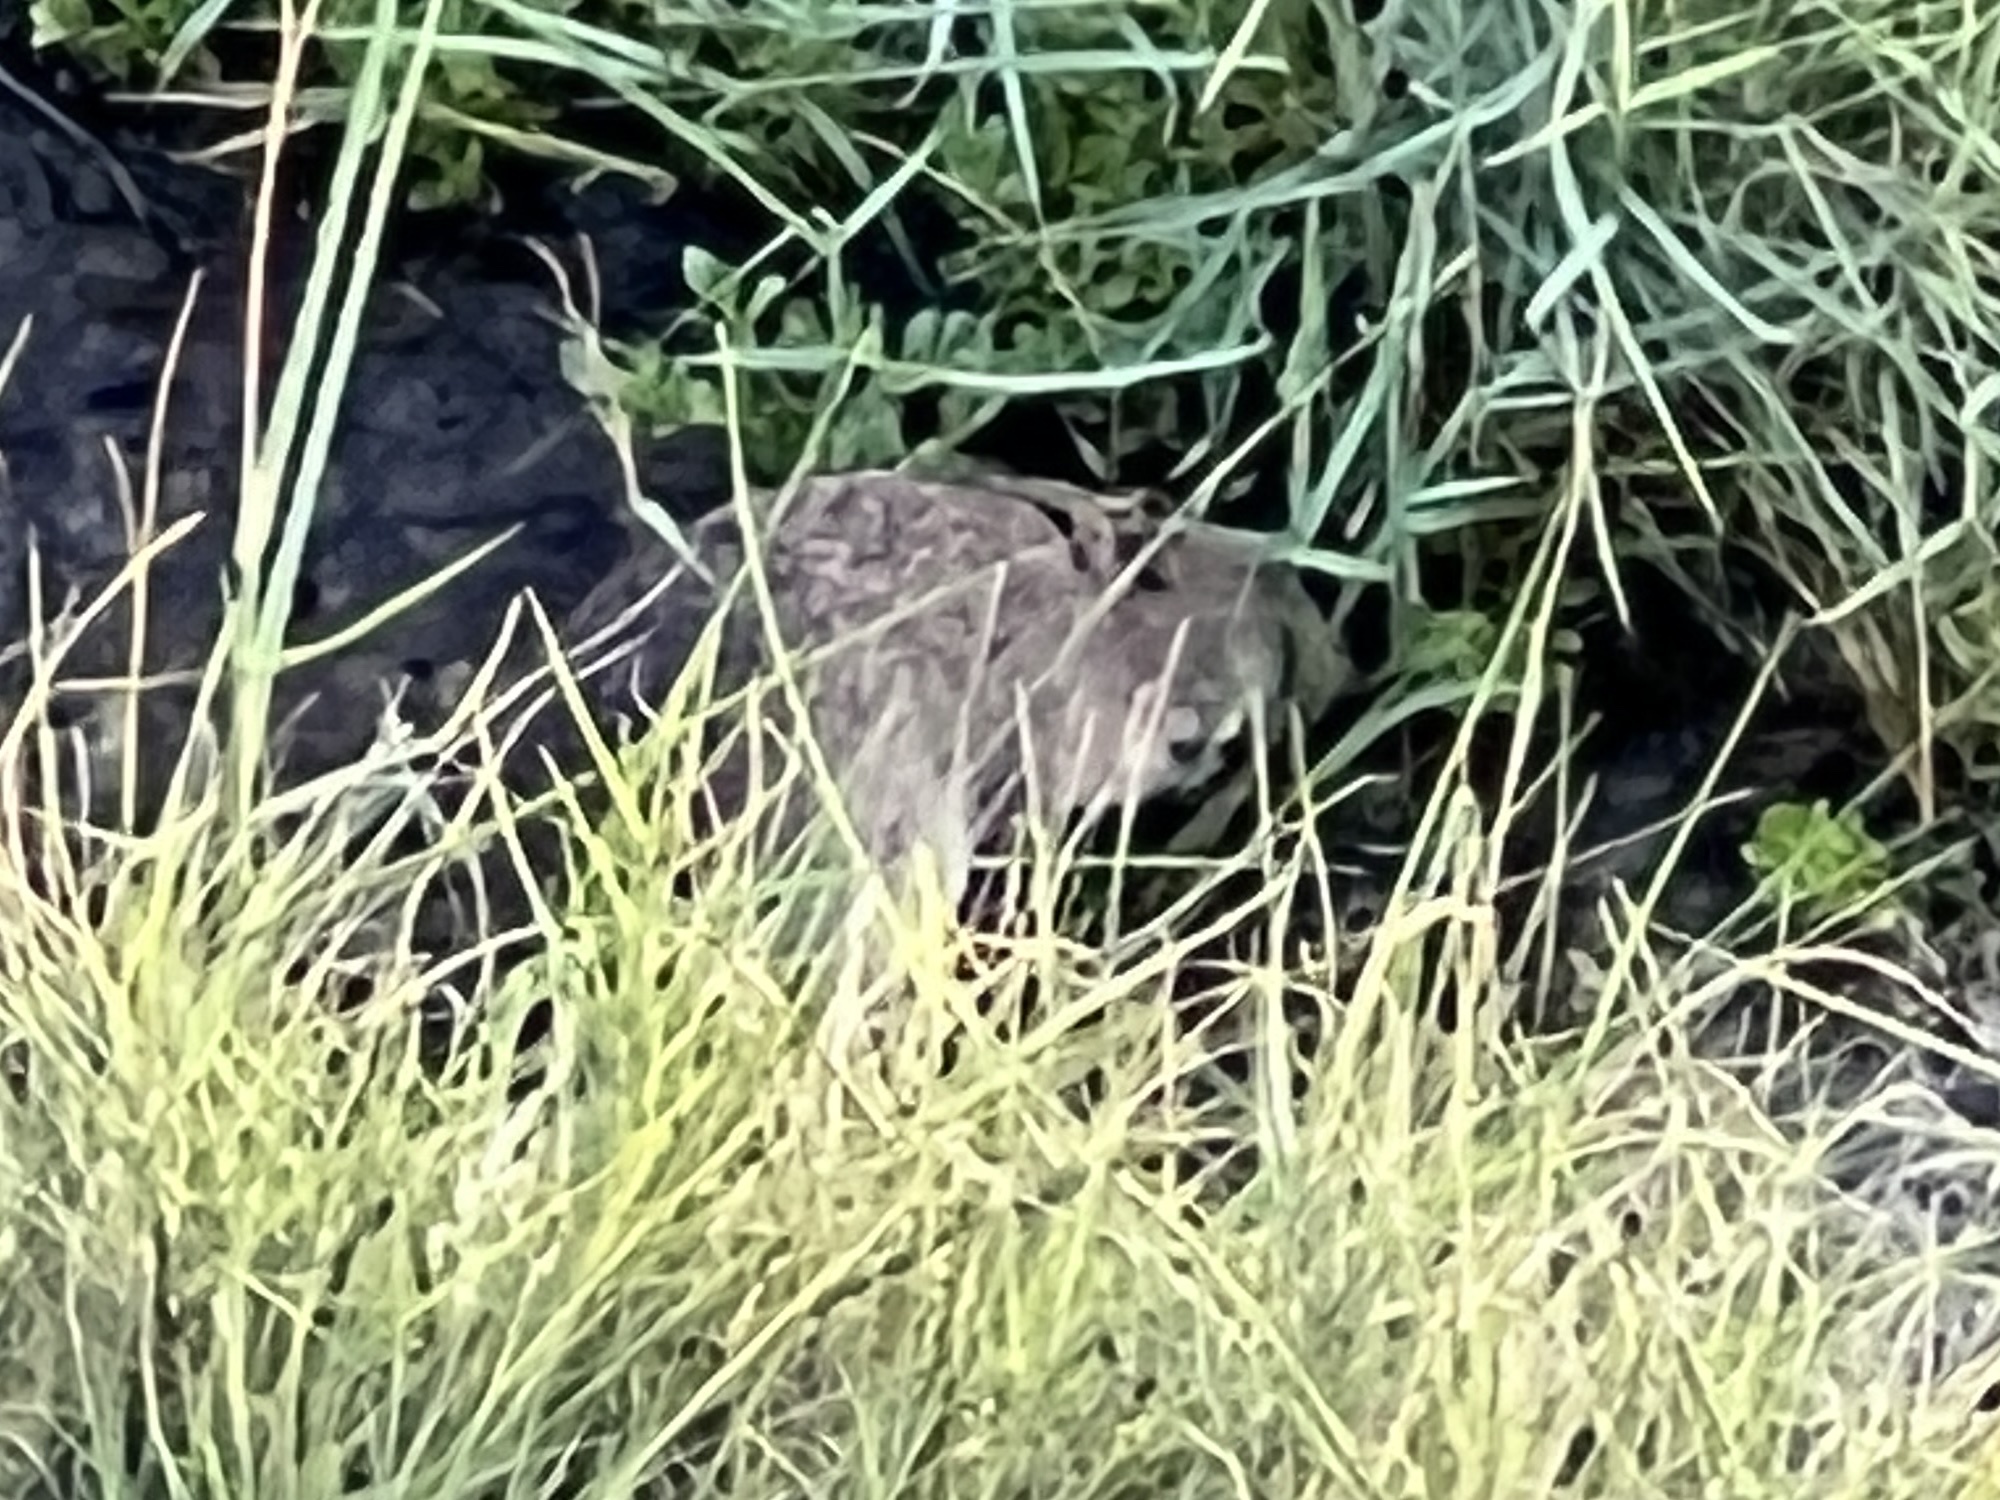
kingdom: Animalia
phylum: Chordata
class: Mammalia
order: Rodentia
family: Cricetidae
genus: Sigmodon
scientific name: Sigmodon hispidus
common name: Hispid cotton rat
